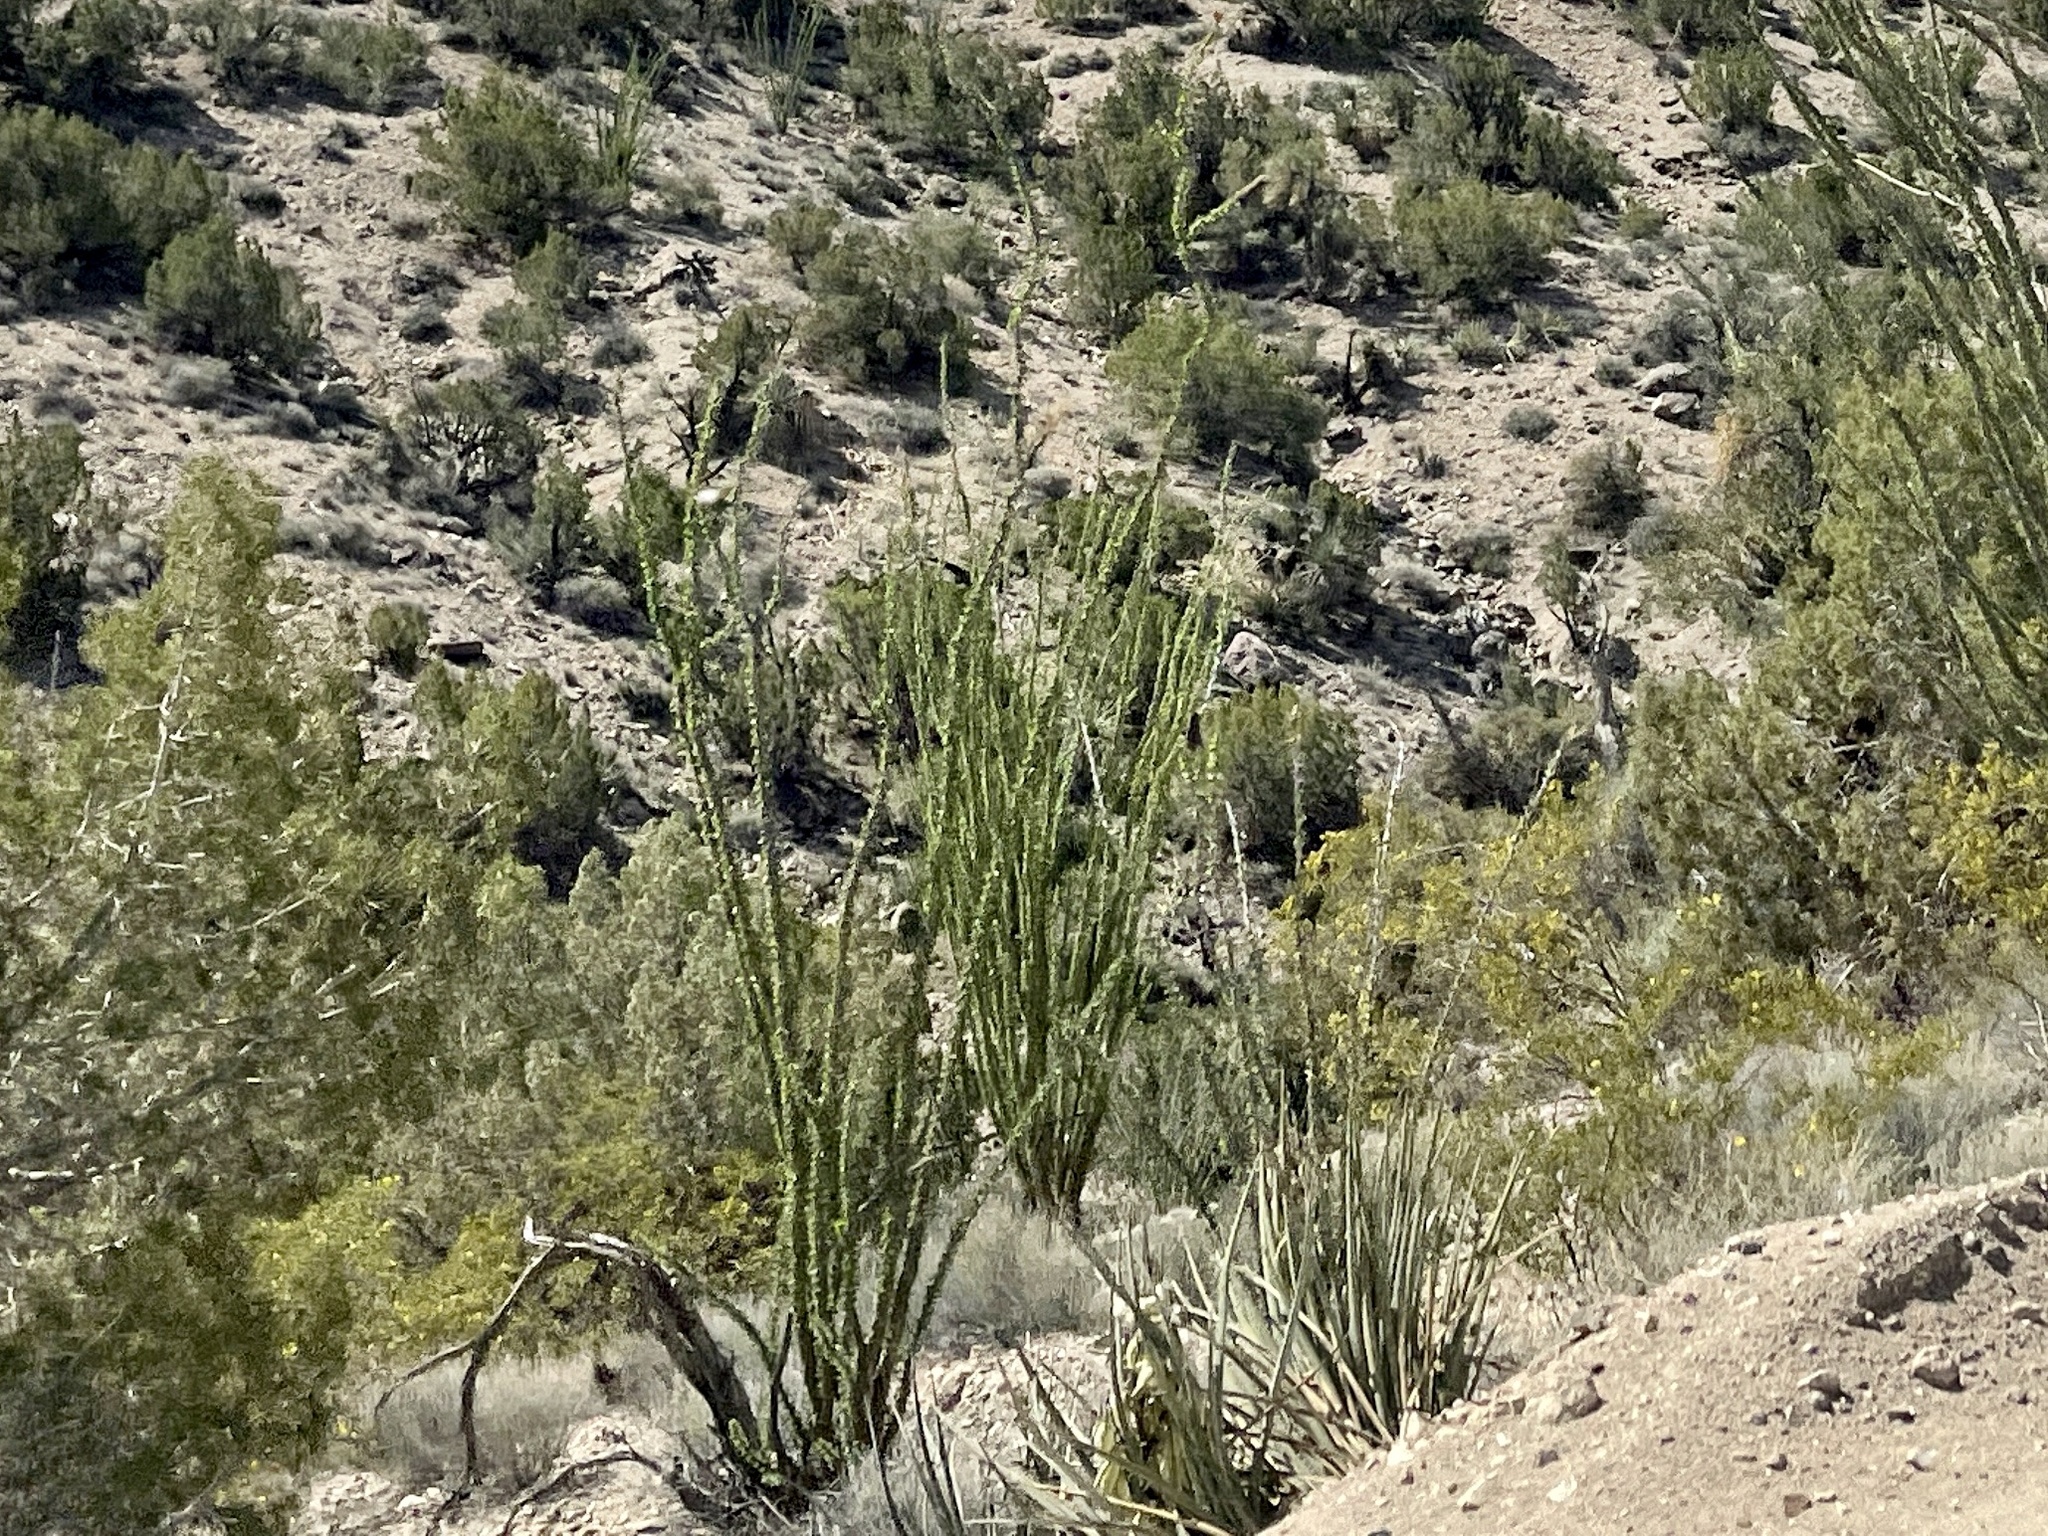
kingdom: Plantae
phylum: Tracheophyta
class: Magnoliopsida
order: Ericales
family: Fouquieriaceae
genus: Fouquieria
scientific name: Fouquieria splendens
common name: Vine-cactus
